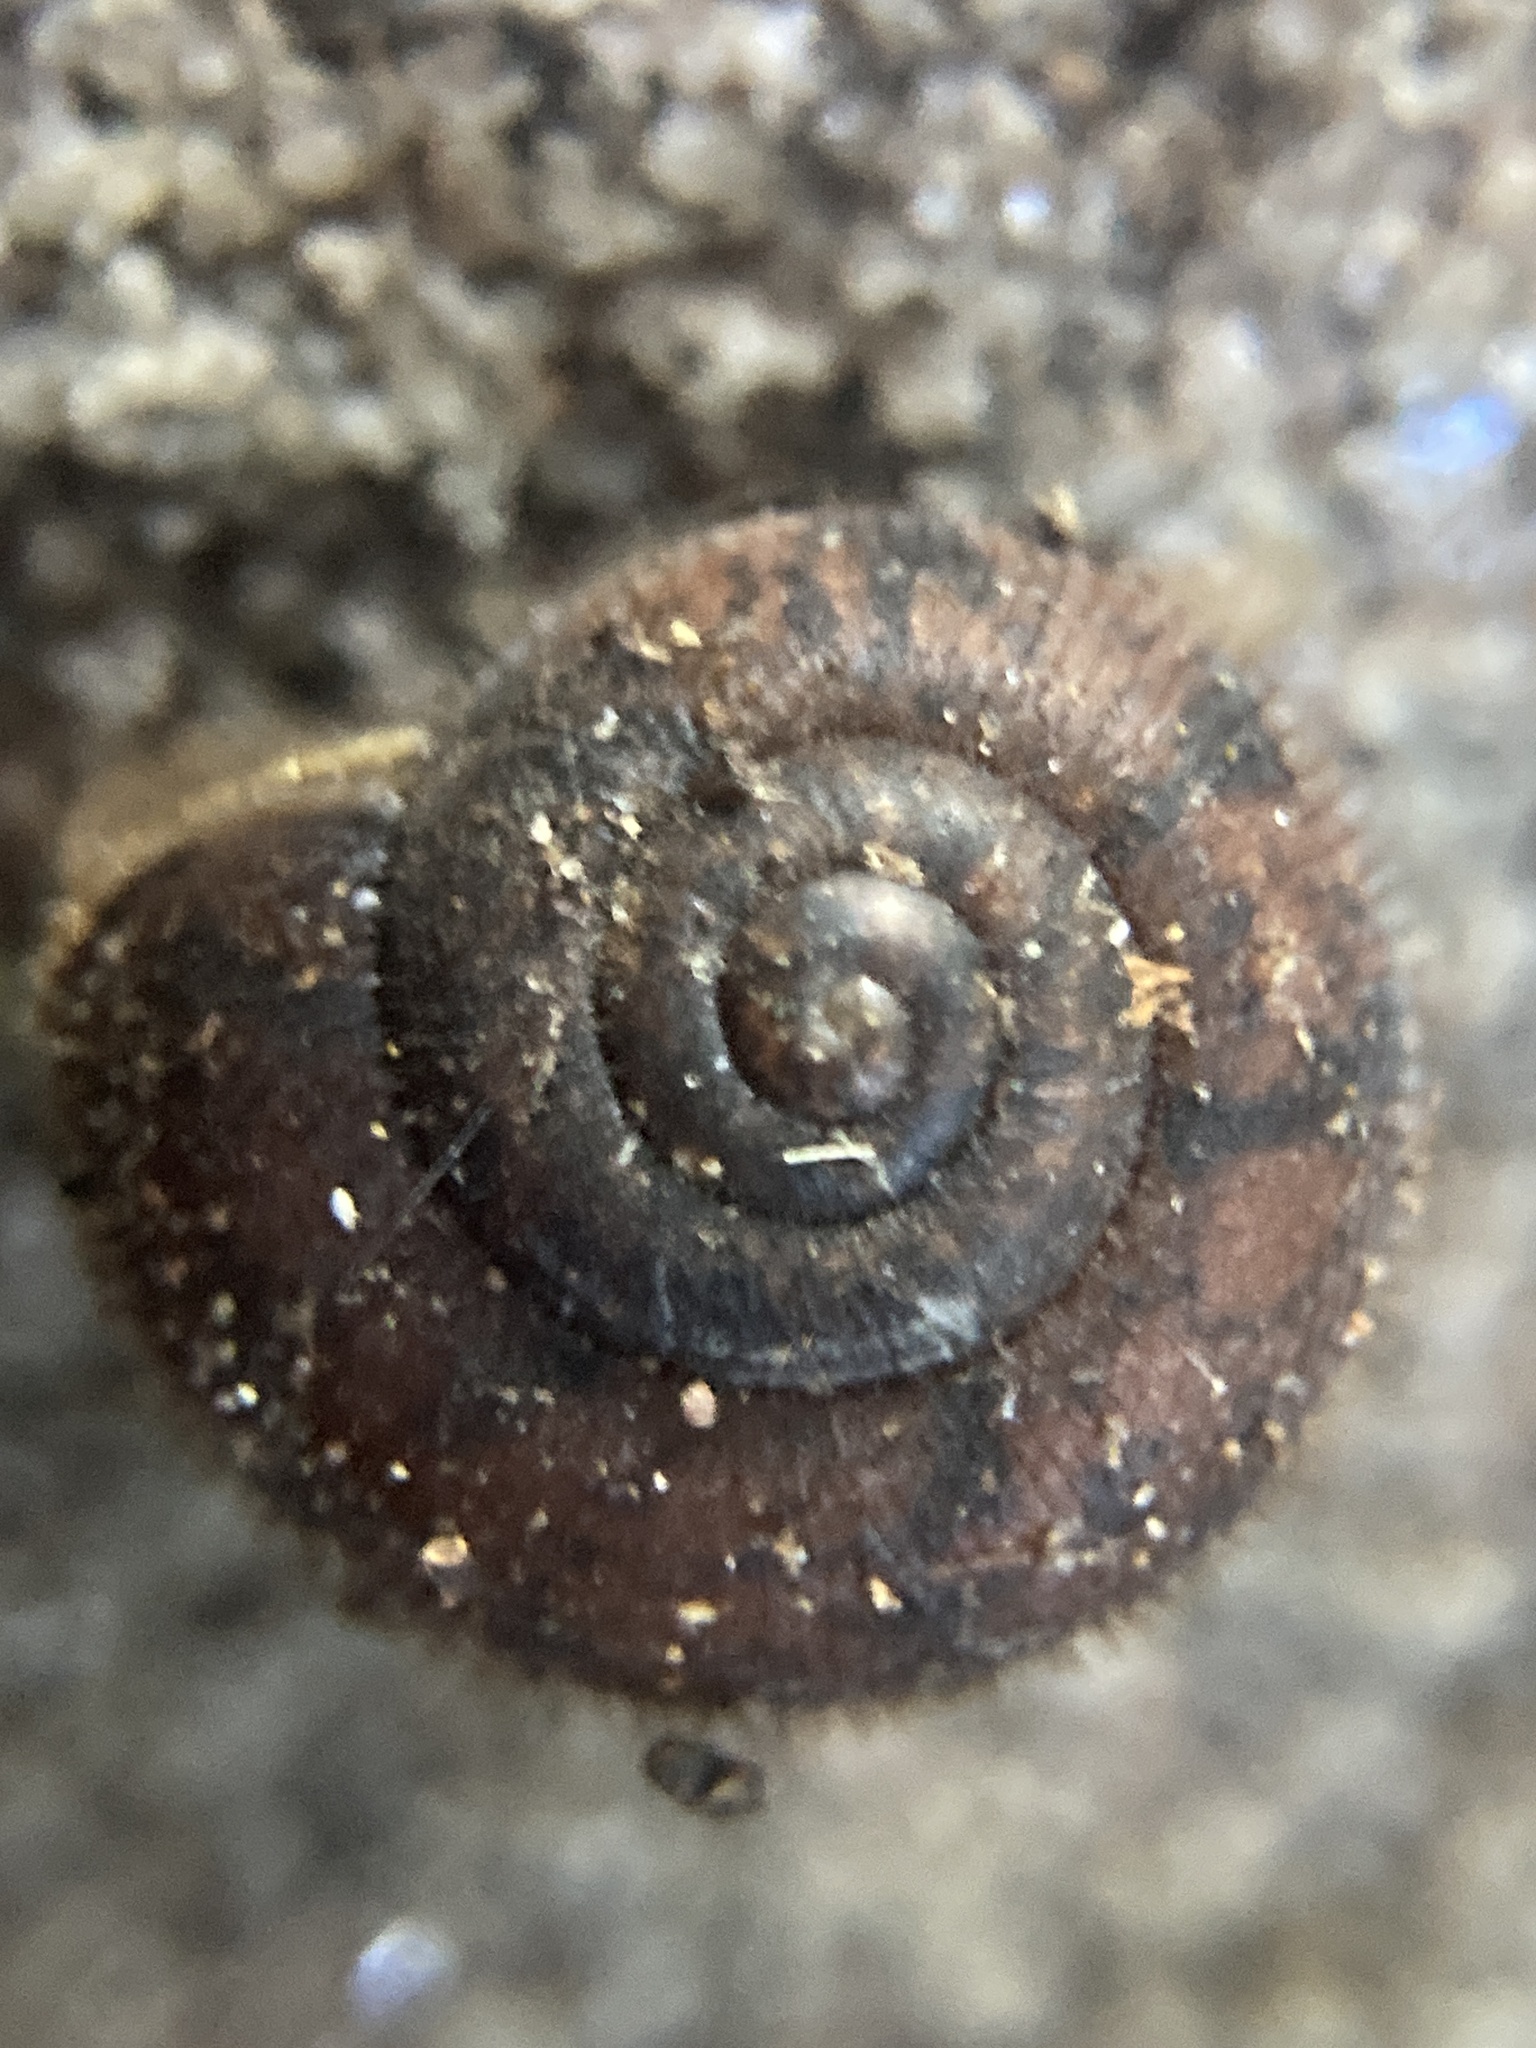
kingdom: Animalia
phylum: Mollusca
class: Gastropoda
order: Stylommatophora
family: Camaenidae
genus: Austrochloritis
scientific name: Austrochloritis metuenda
